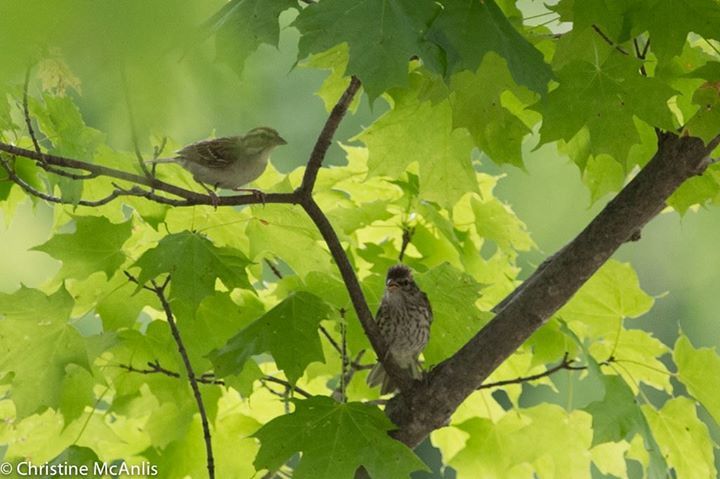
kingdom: Animalia
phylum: Chordata
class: Aves
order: Passeriformes
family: Passerellidae
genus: Spizella
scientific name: Spizella passerina
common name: Chipping sparrow
